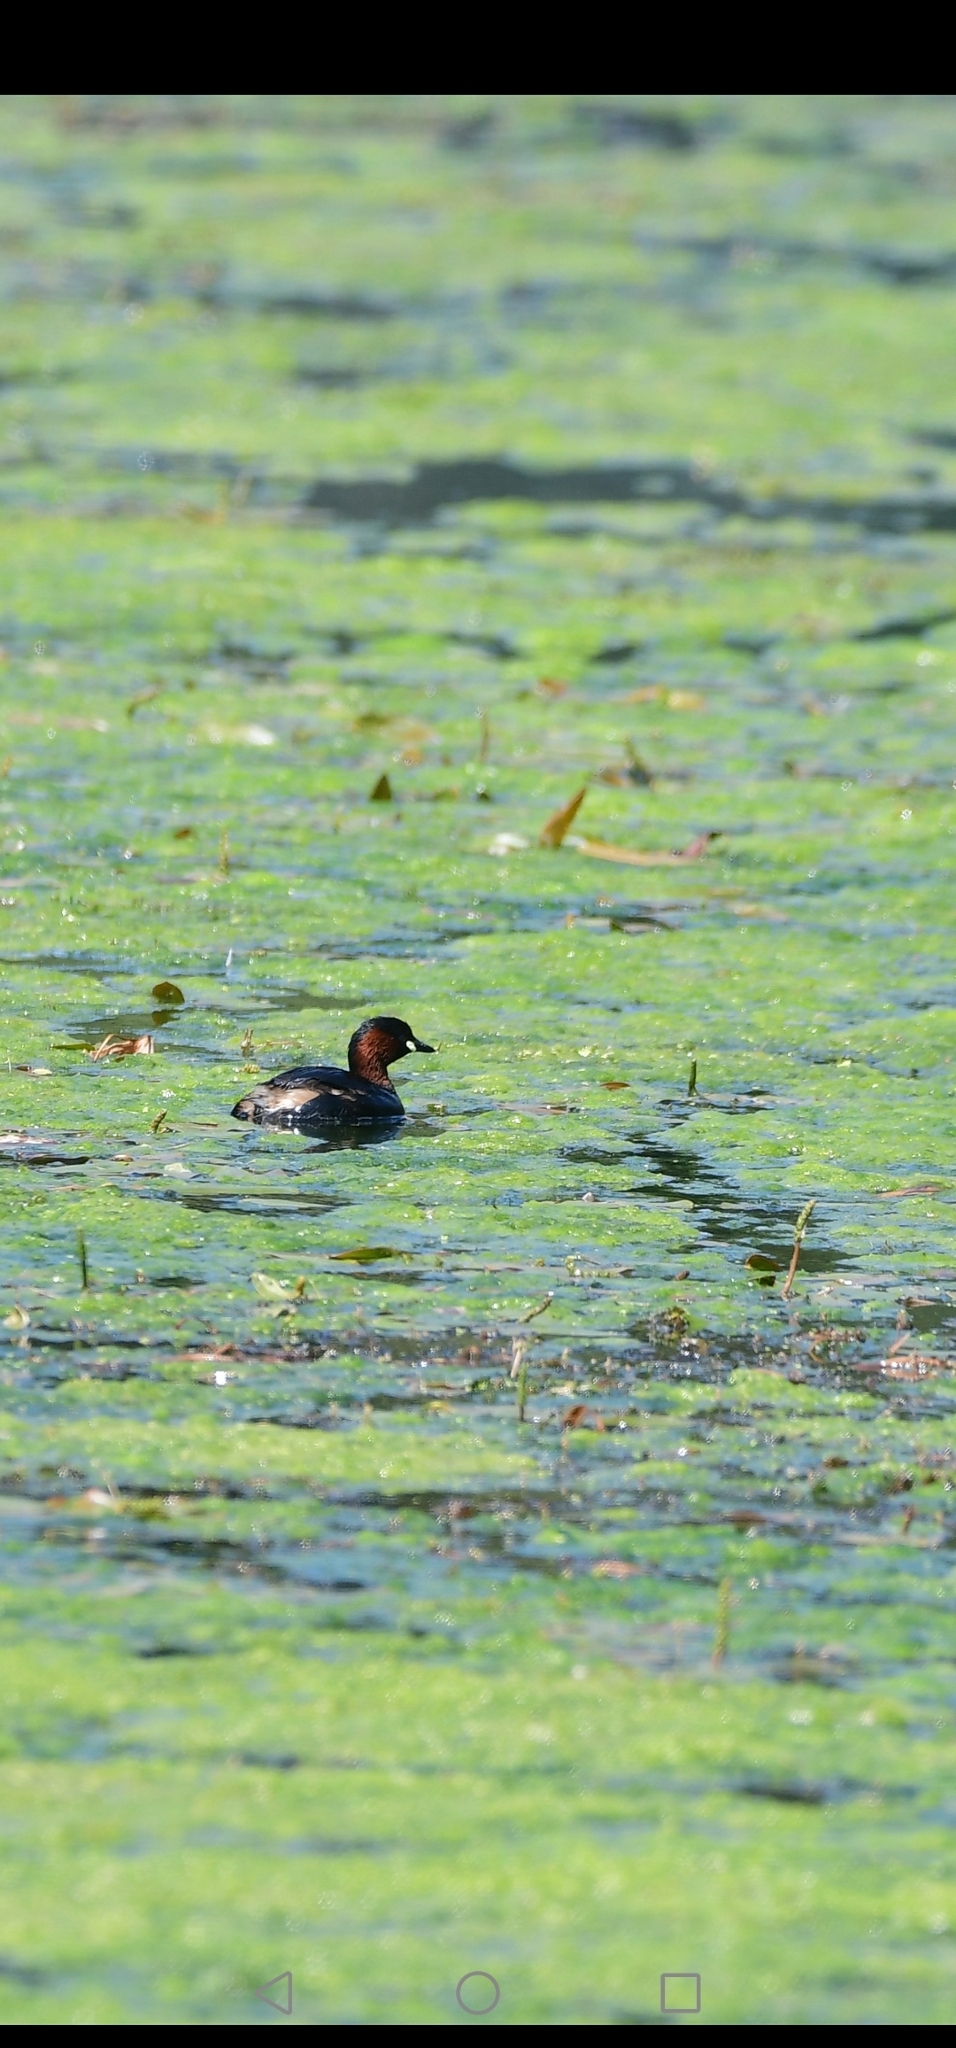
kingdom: Animalia
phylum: Chordata
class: Aves
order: Podicipediformes
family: Podicipedidae
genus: Tachybaptus
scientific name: Tachybaptus ruficollis
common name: Little grebe
